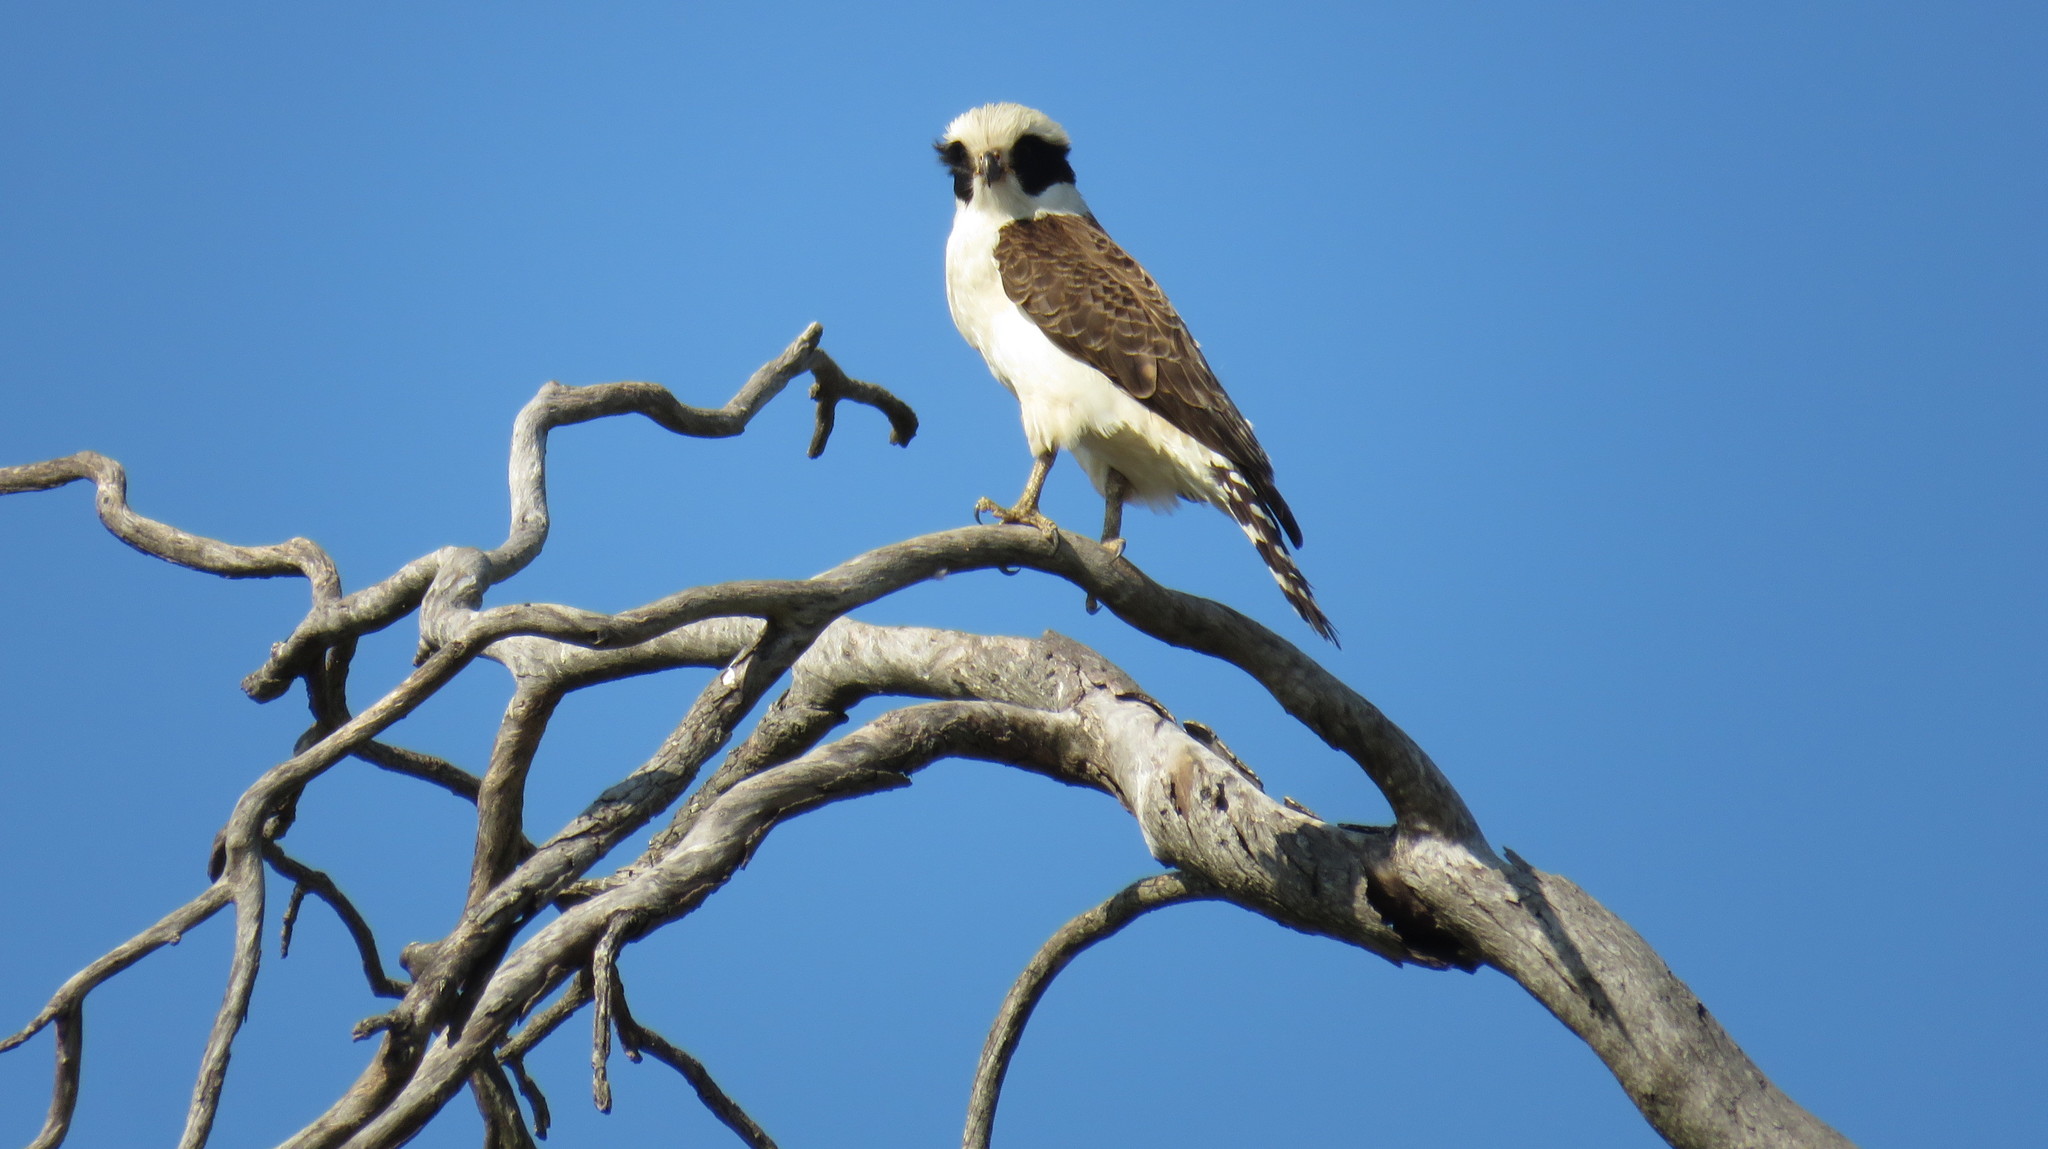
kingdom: Animalia
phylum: Chordata
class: Aves
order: Falconiformes
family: Falconidae
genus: Herpetotheres
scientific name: Herpetotheres cachinnans
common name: Laughing falcon
